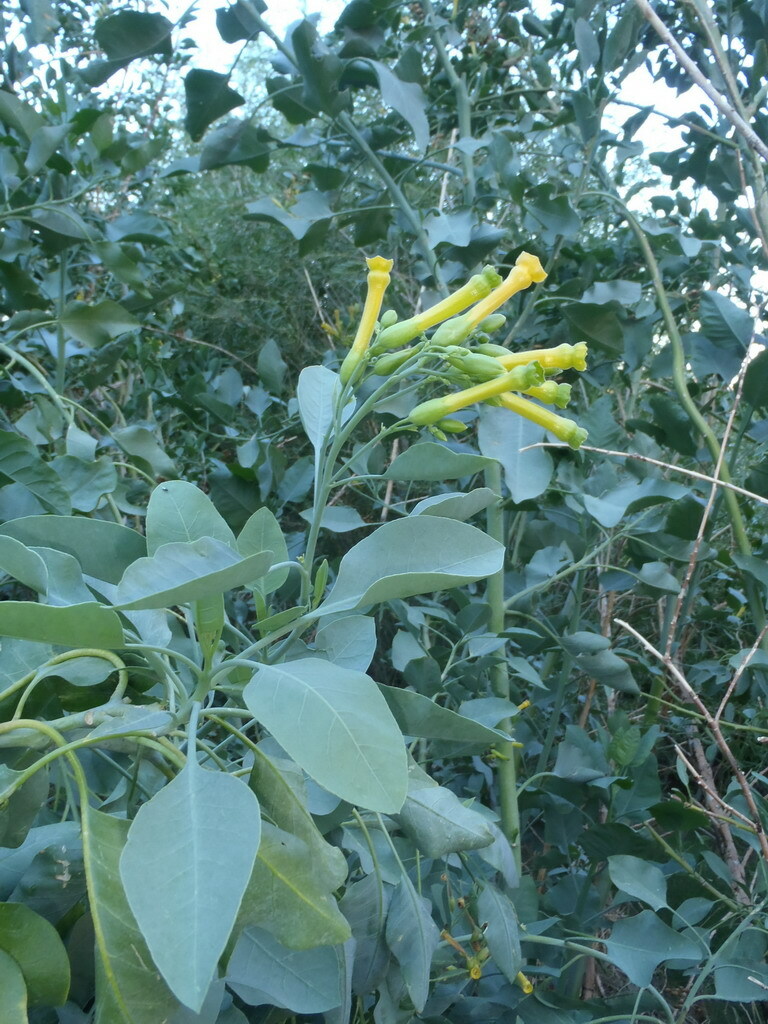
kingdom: Plantae
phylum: Tracheophyta
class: Magnoliopsida
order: Solanales
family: Solanaceae
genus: Nicotiana
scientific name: Nicotiana glauca
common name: Tree tobacco
